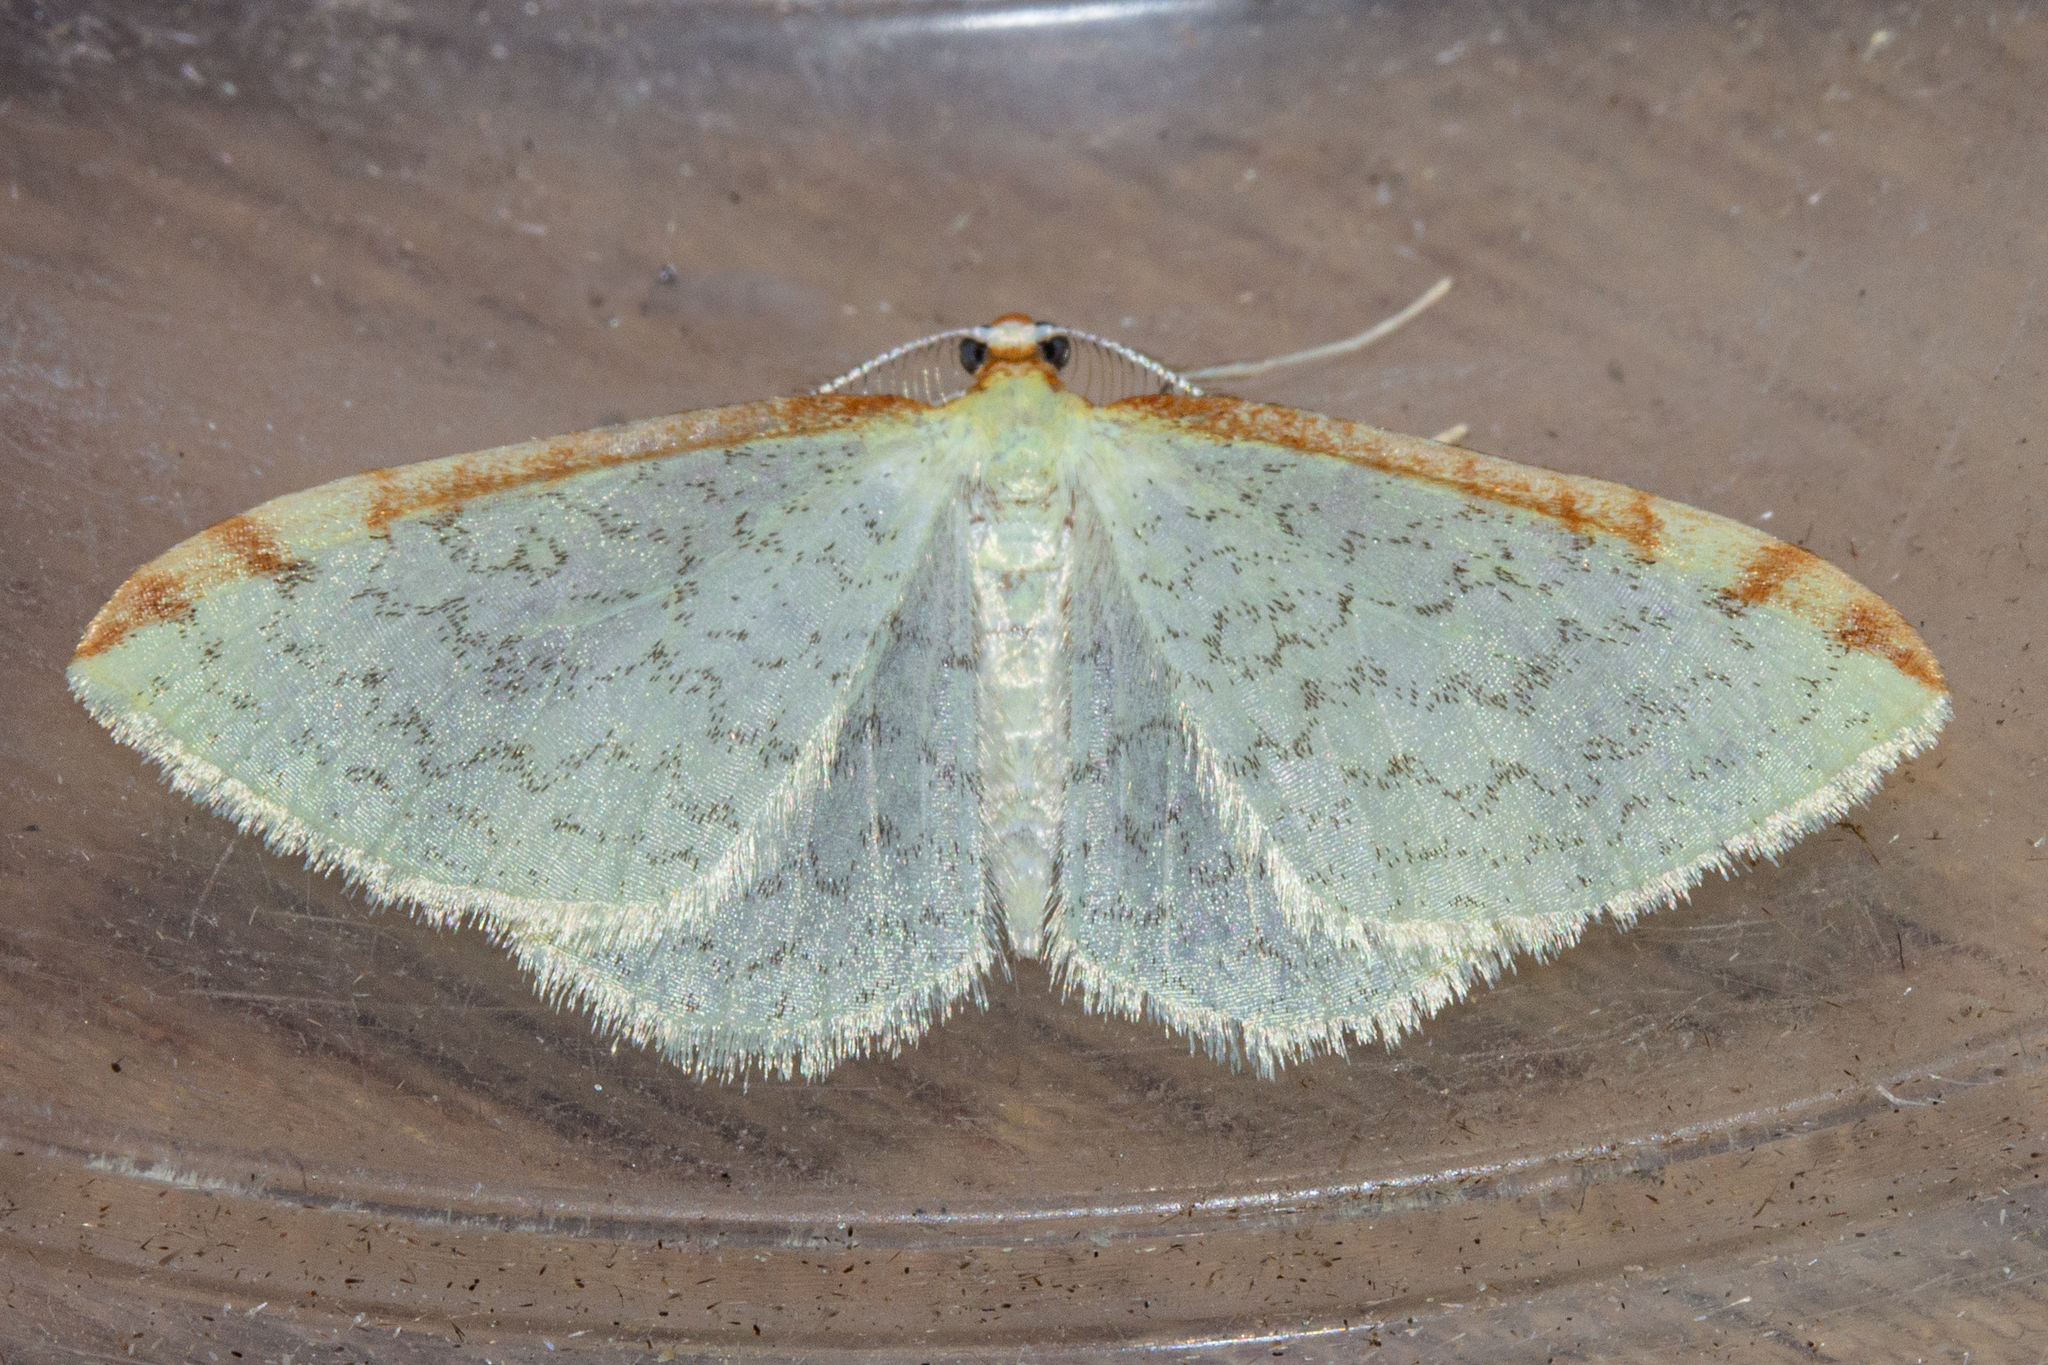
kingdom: Animalia
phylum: Arthropoda
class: Insecta
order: Lepidoptera
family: Geometridae
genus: Epiphryne
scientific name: Epiphryne undosata
